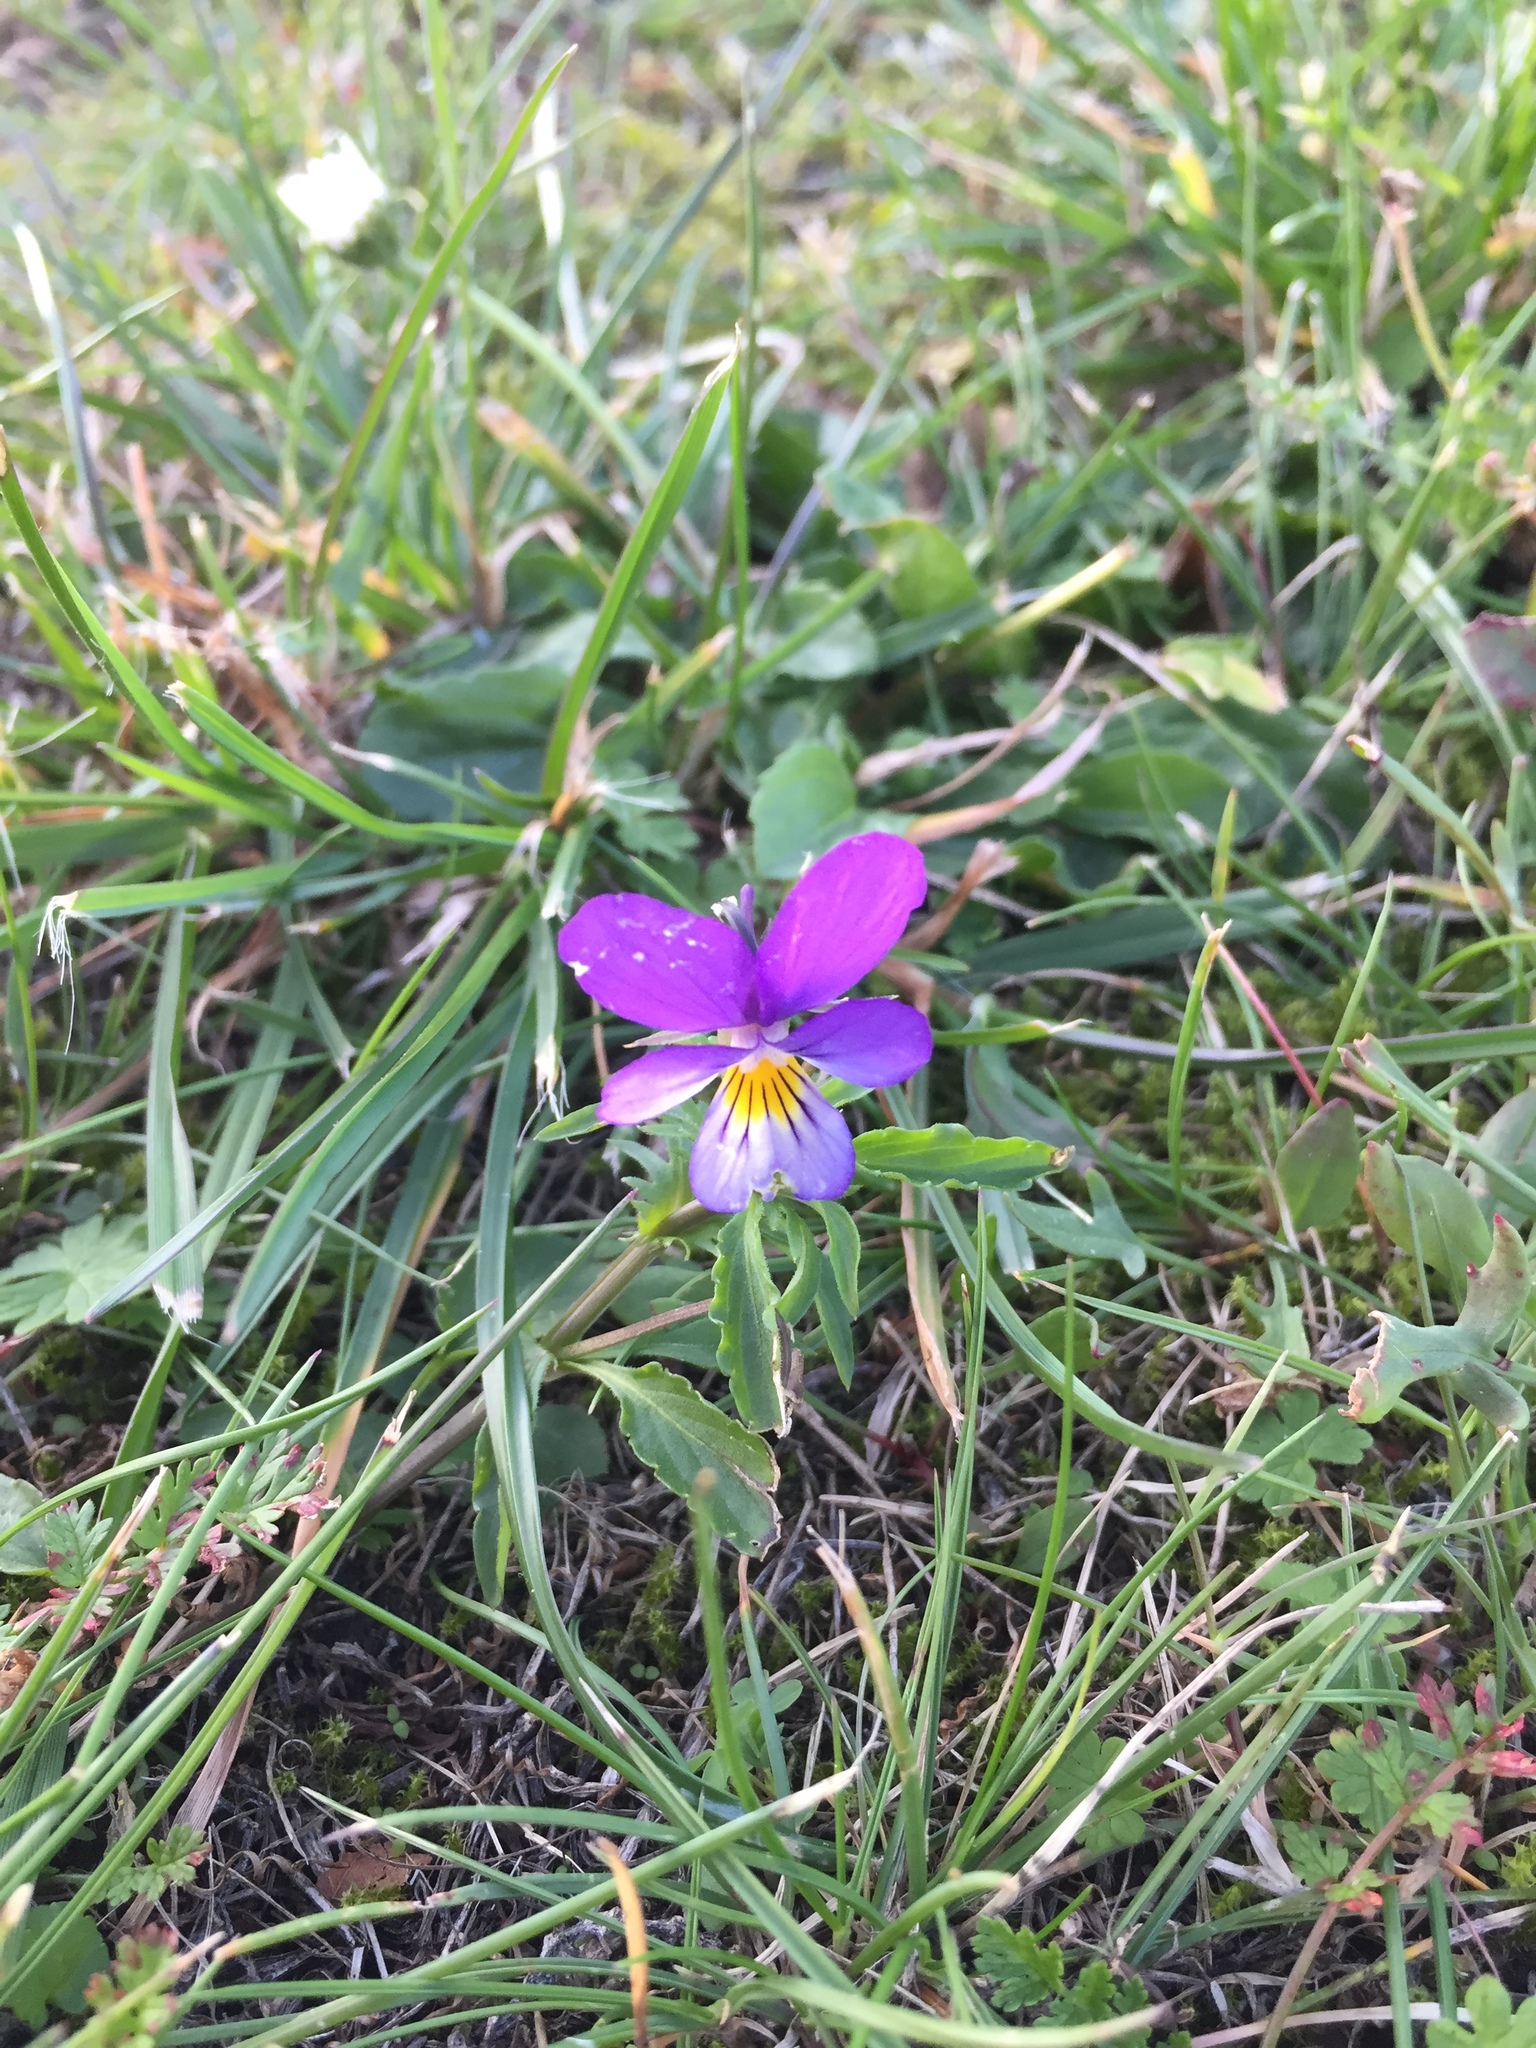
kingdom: Plantae
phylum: Tracheophyta
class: Magnoliopsida
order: Malpighiales
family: Violaceae
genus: Viola
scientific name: Viola tricolor
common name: Pansy
